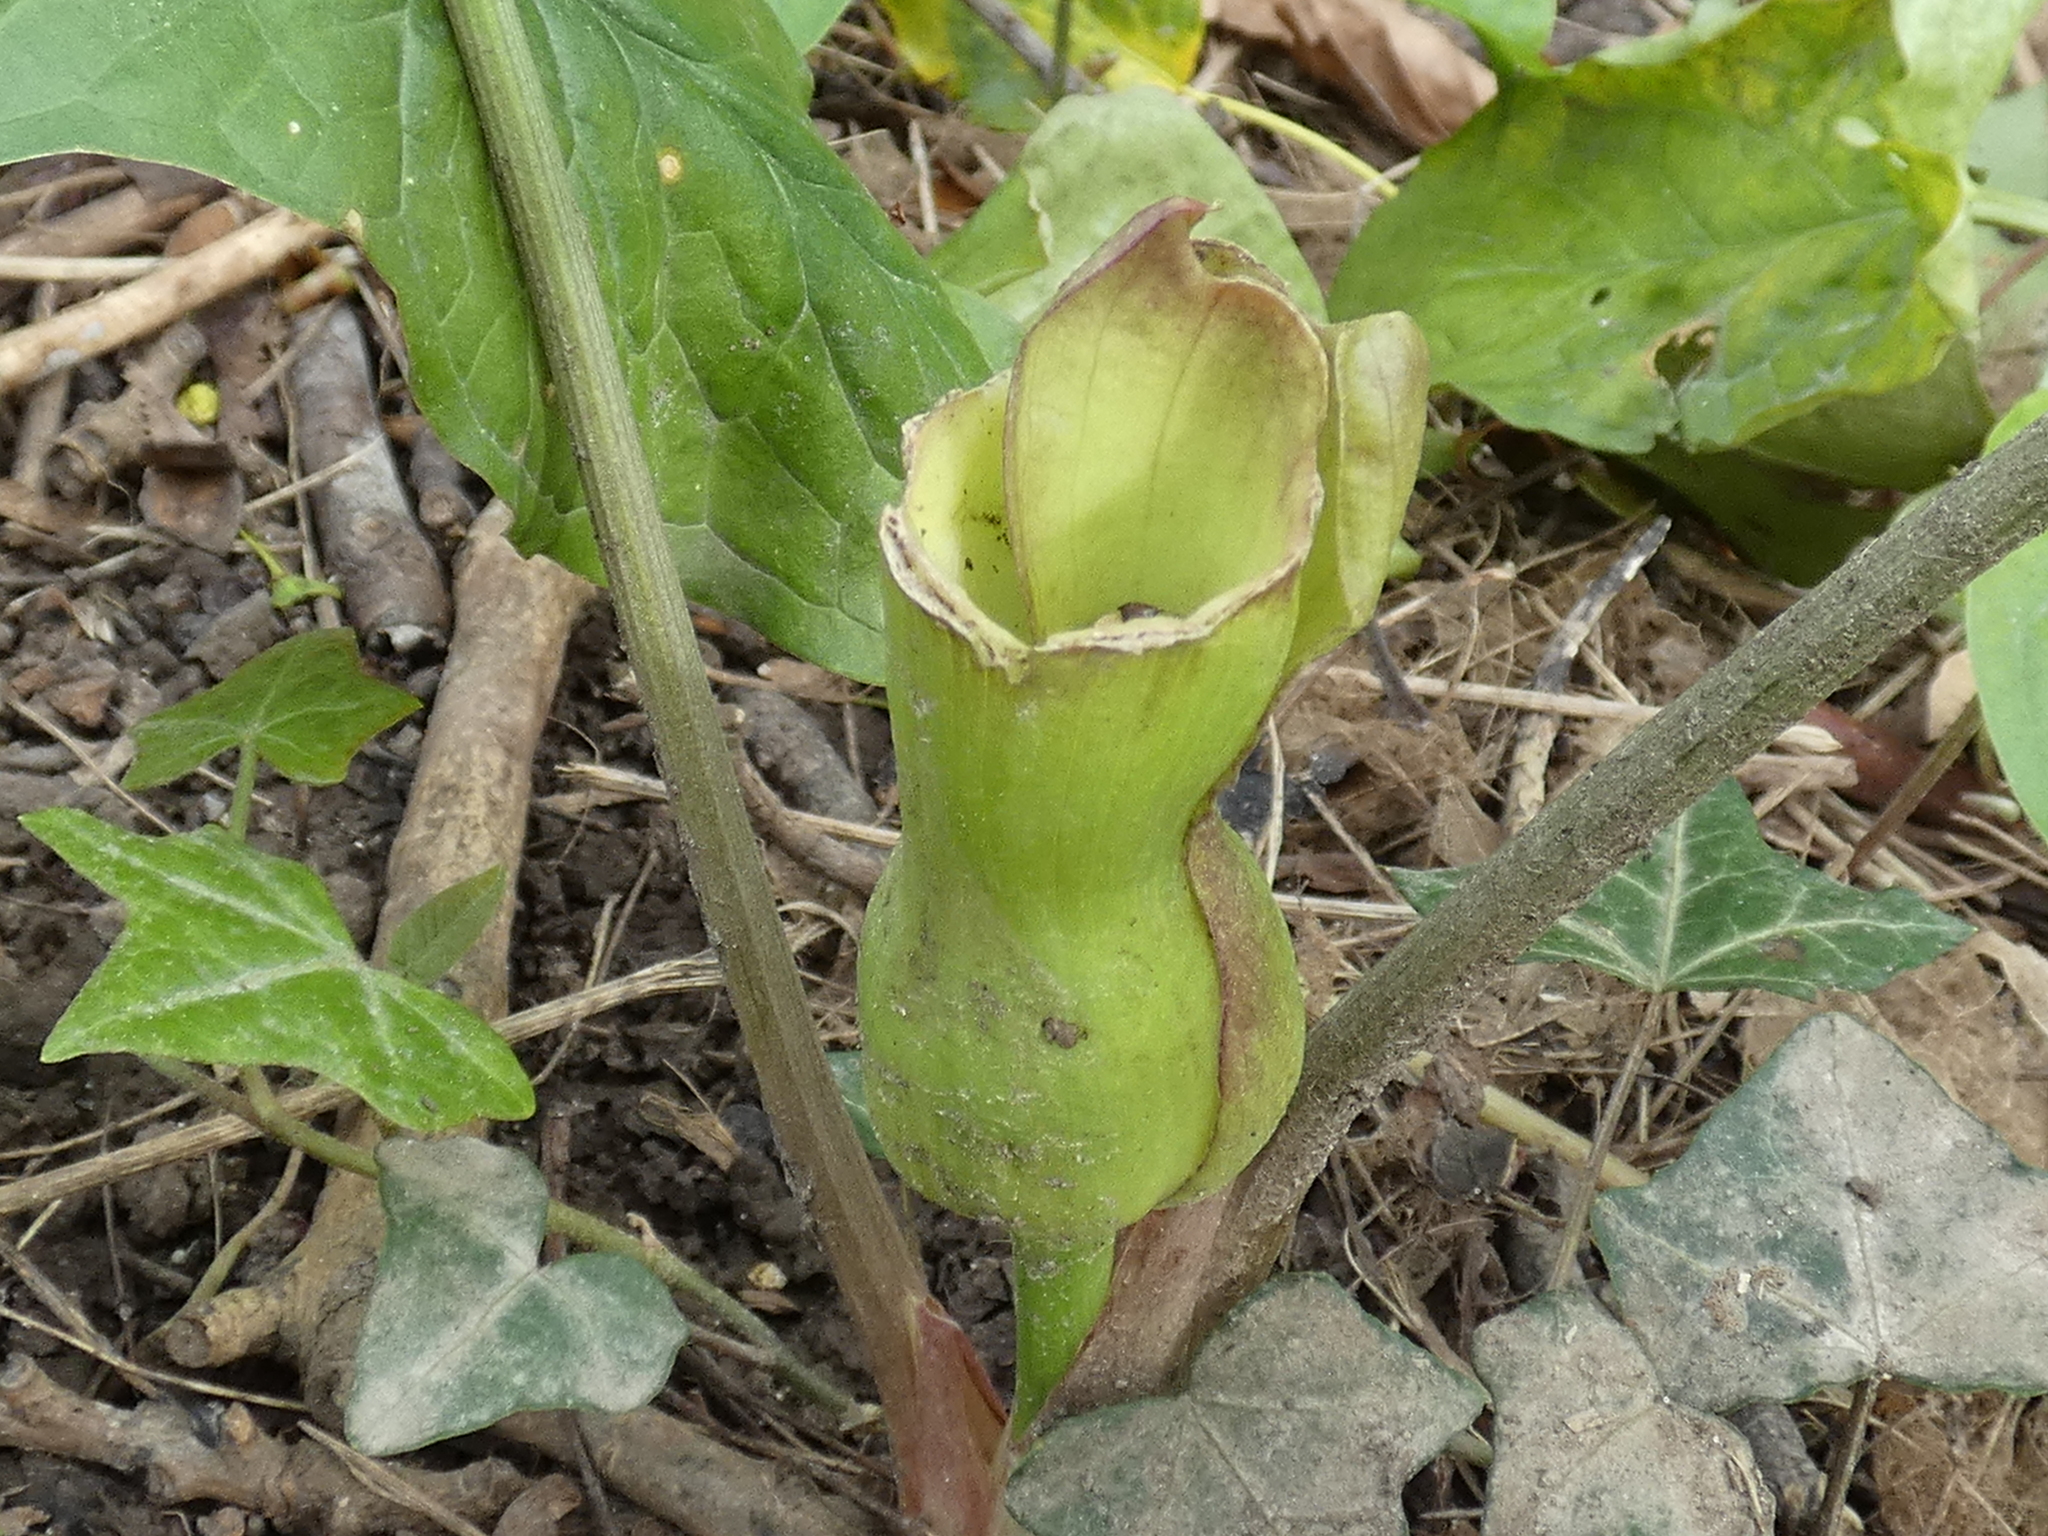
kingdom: Plantae
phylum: Tracheophyta
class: Liliopsida
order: Alismatales
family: Araceae
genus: Arum
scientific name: Arum maculatum
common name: Lords-and-ladies
